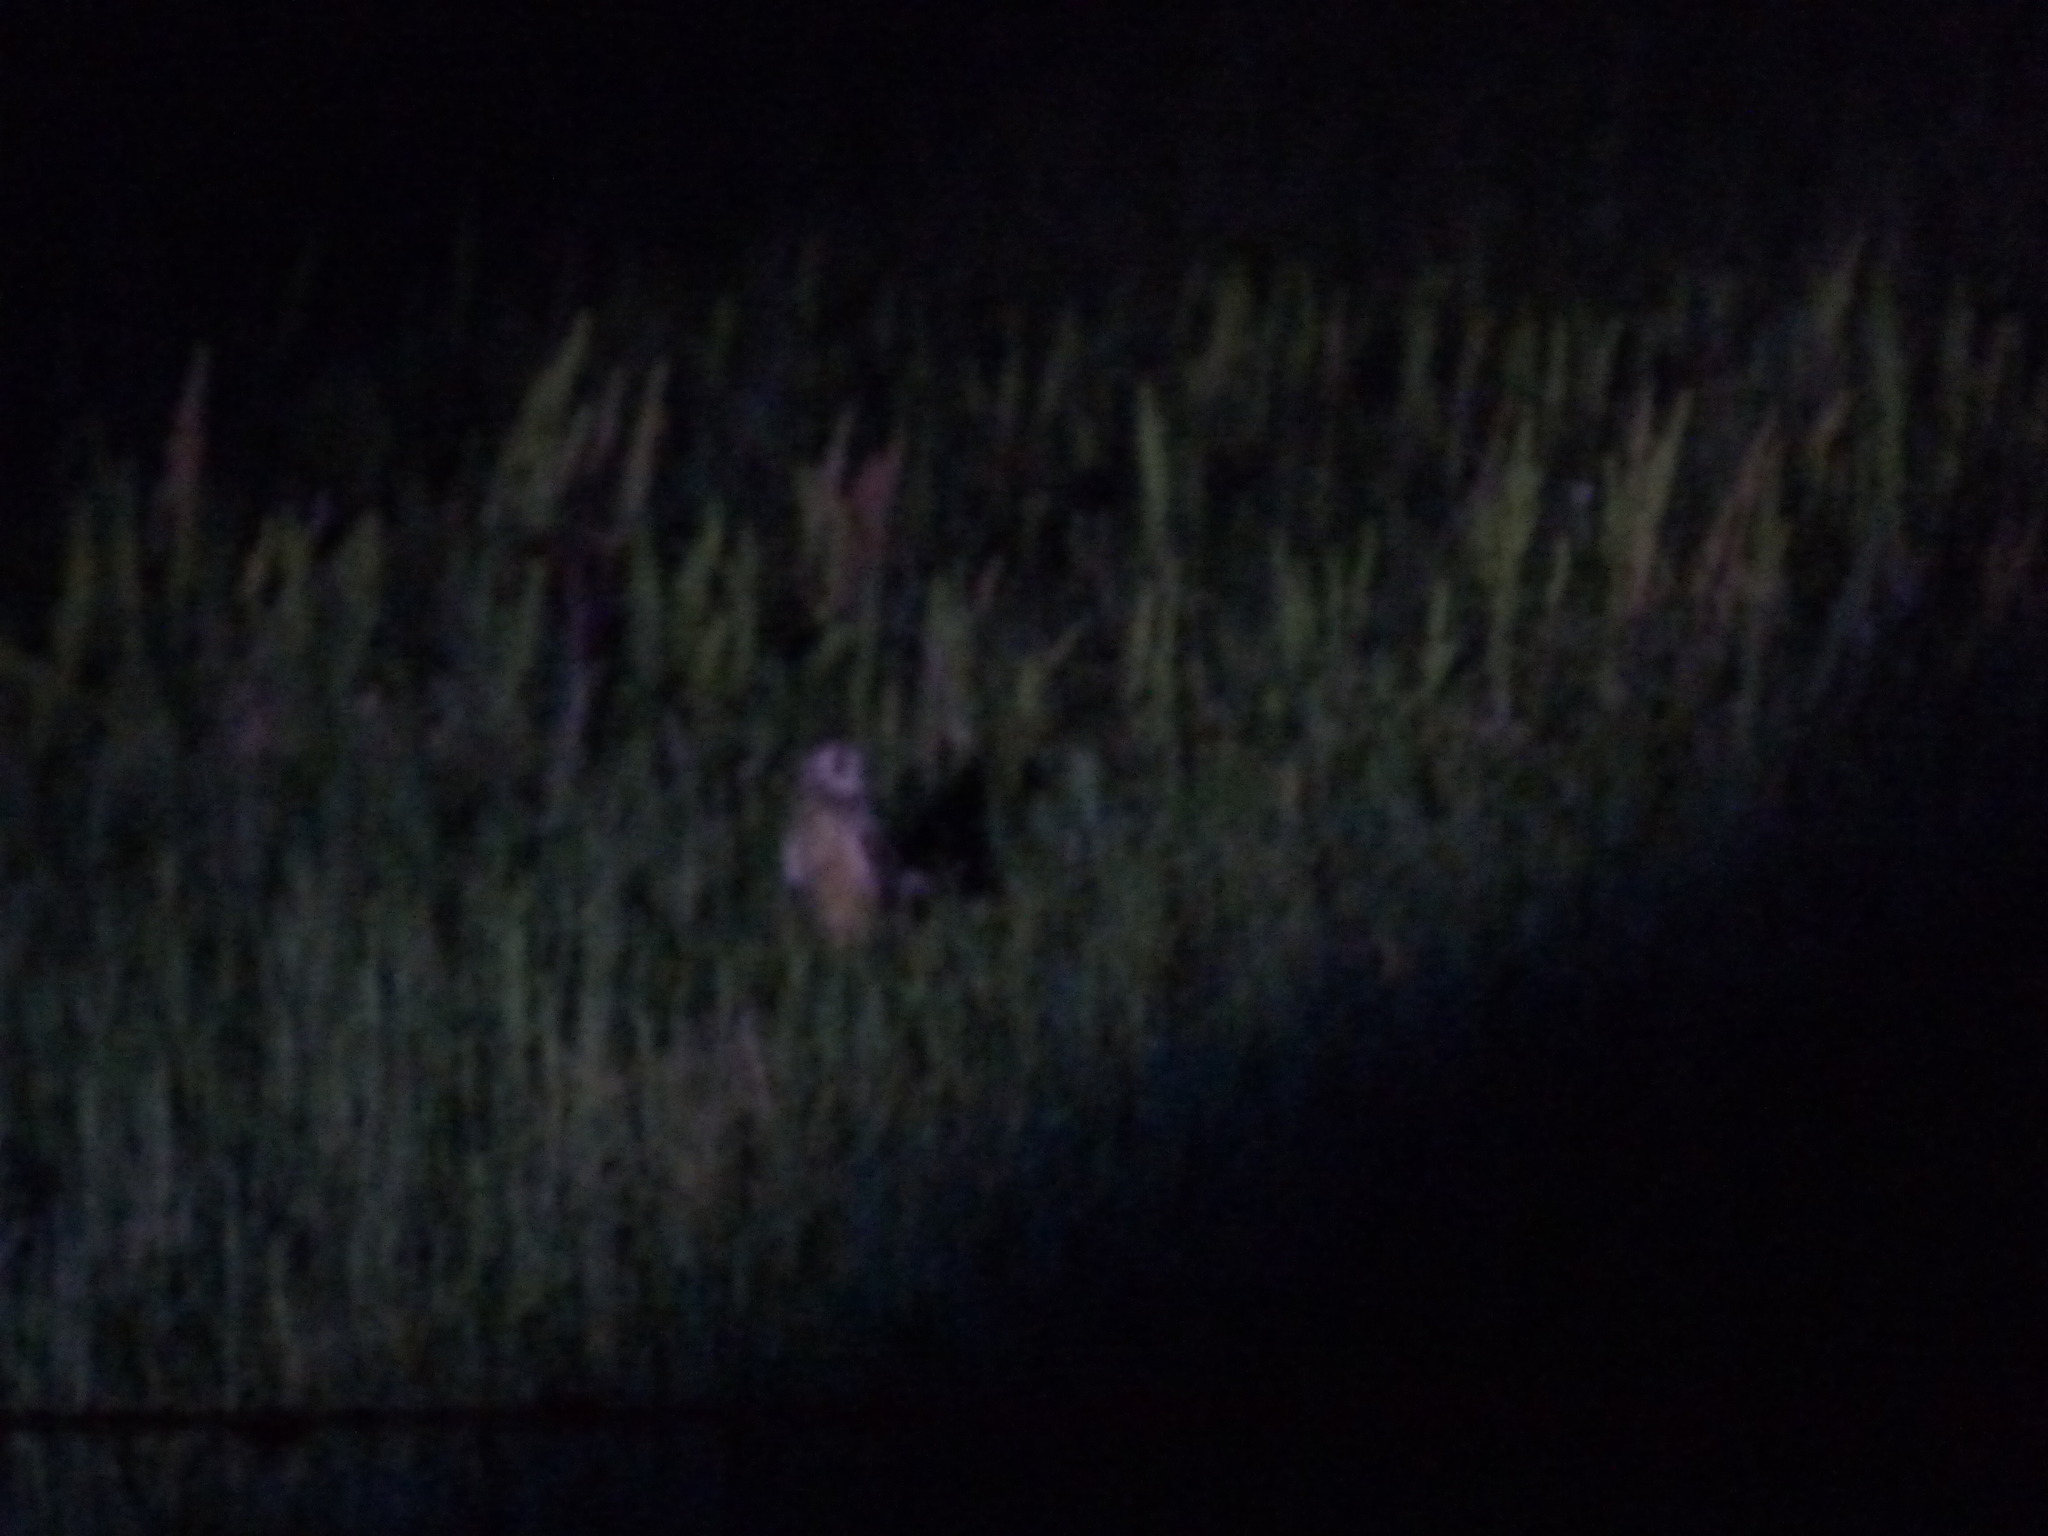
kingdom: Animalia
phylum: Chordata
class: Aves
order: Strigiformes
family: Strigidae
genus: Asio
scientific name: Asio flammeus
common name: Short-eared owl
